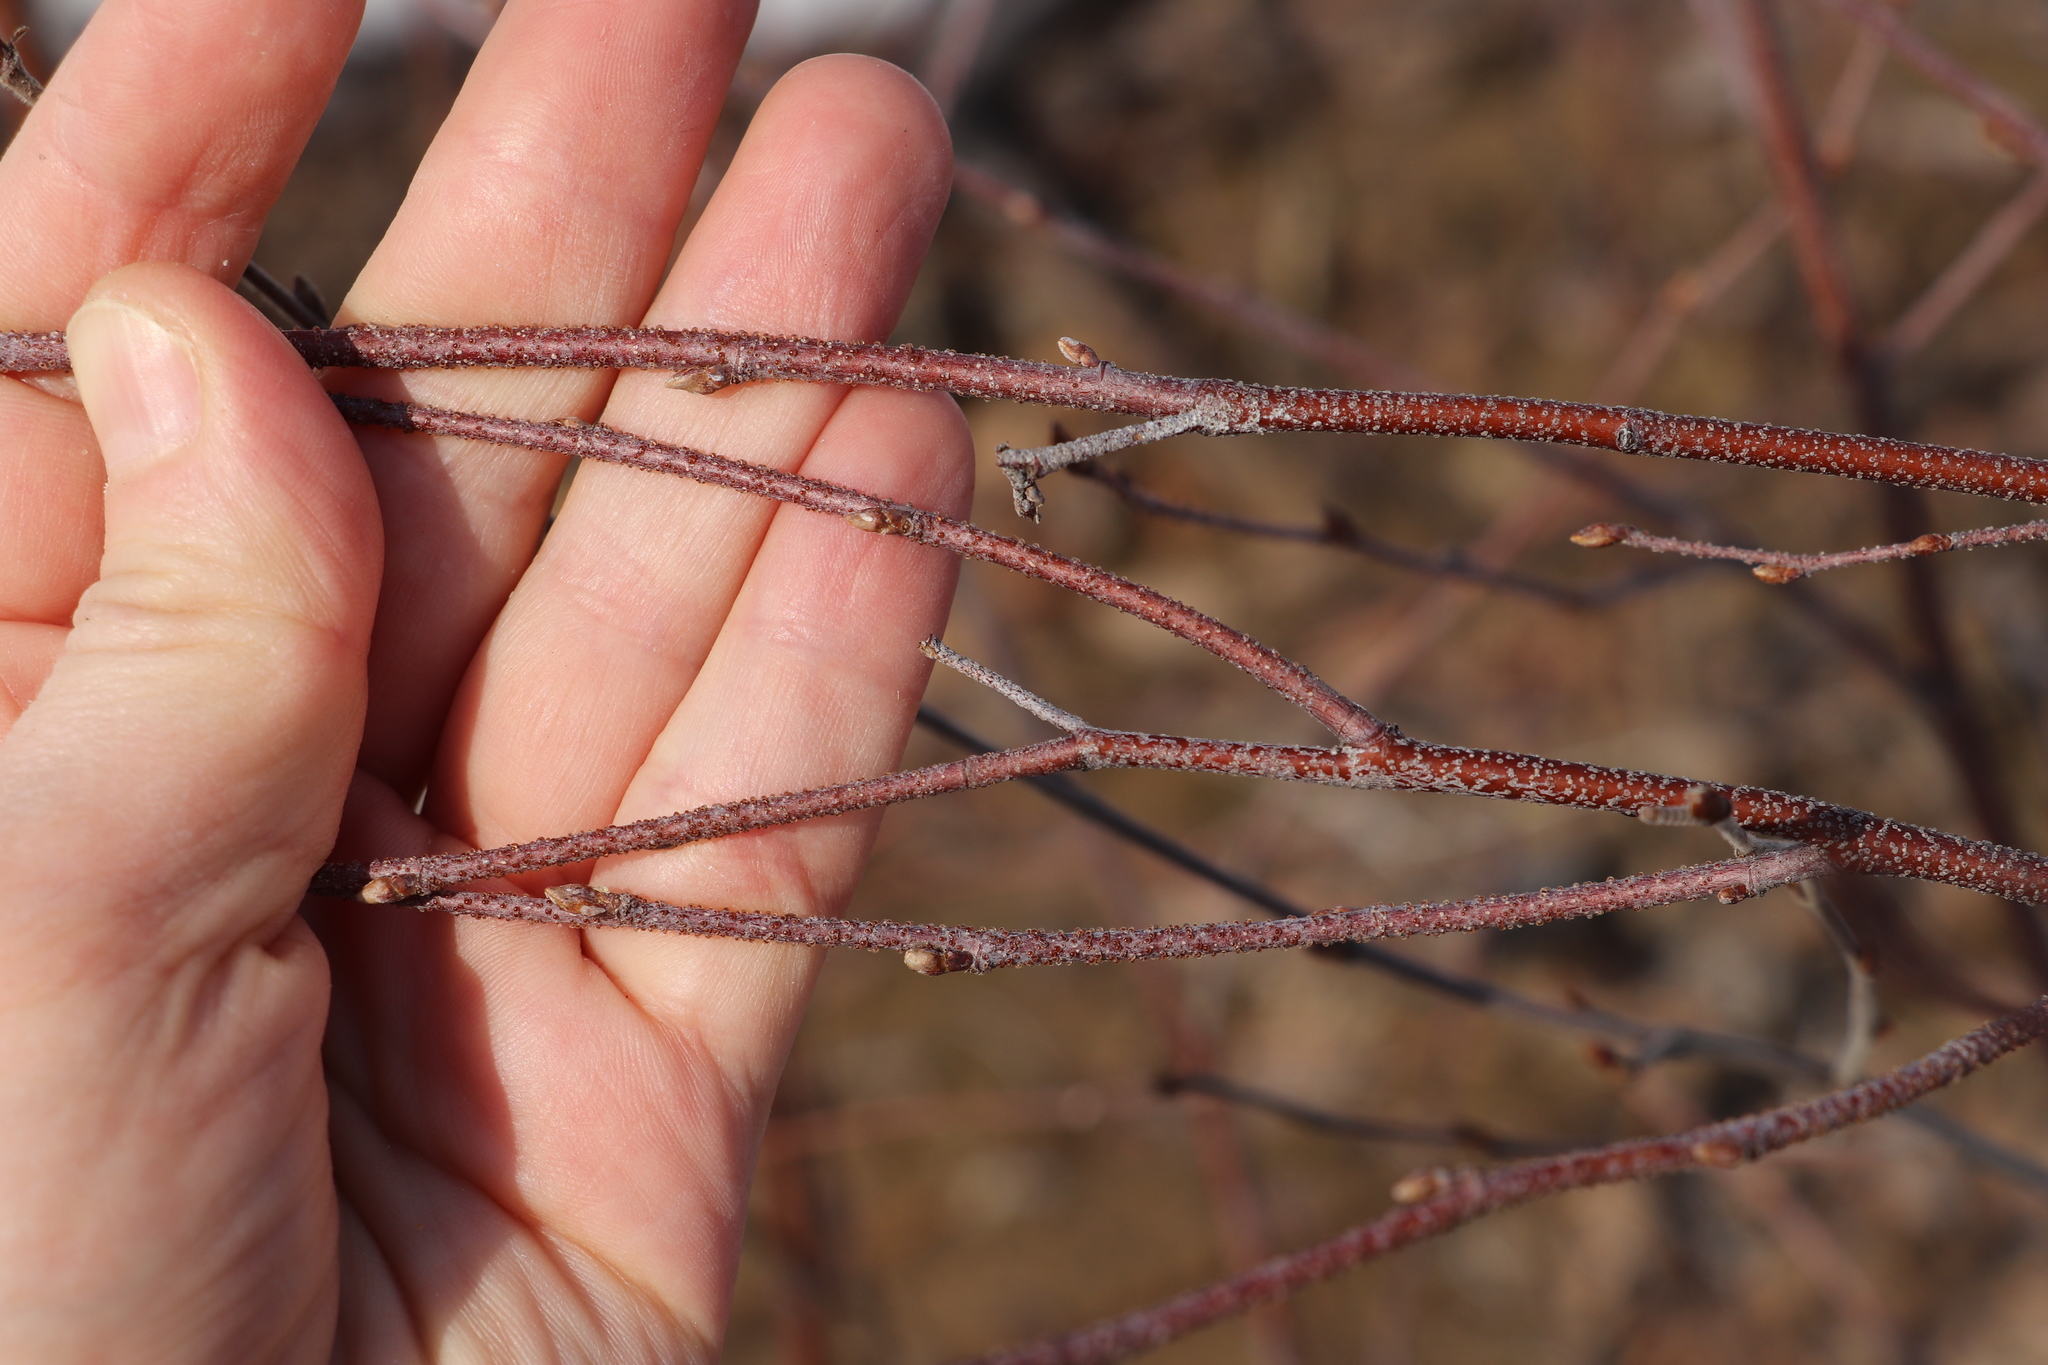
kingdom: Plantae
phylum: Tracheophyta
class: Magnoliopsida
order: Fagales
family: Betulaceae
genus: Betula
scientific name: Betula pendula
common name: Silver birch
